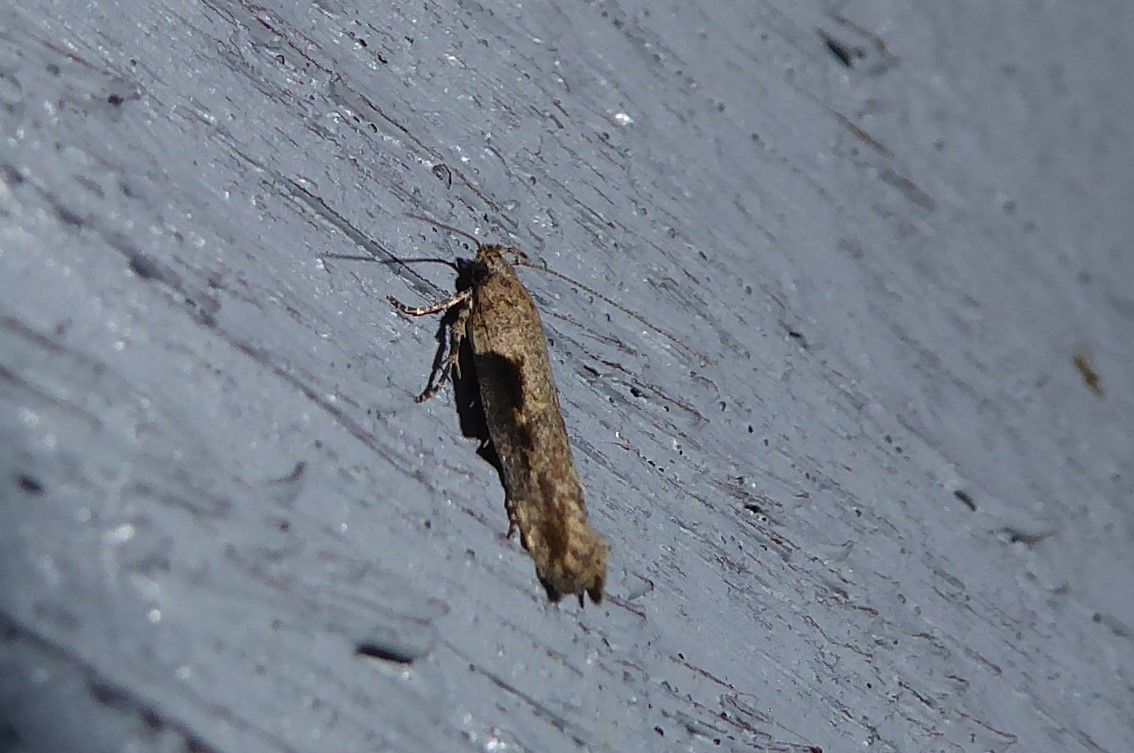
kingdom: Animalia
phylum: Arthropoda
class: Insecta
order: Lepidoptera
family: Gelechiidae
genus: Symmetrischema
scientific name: Symmetrischema tangolias
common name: Moth
